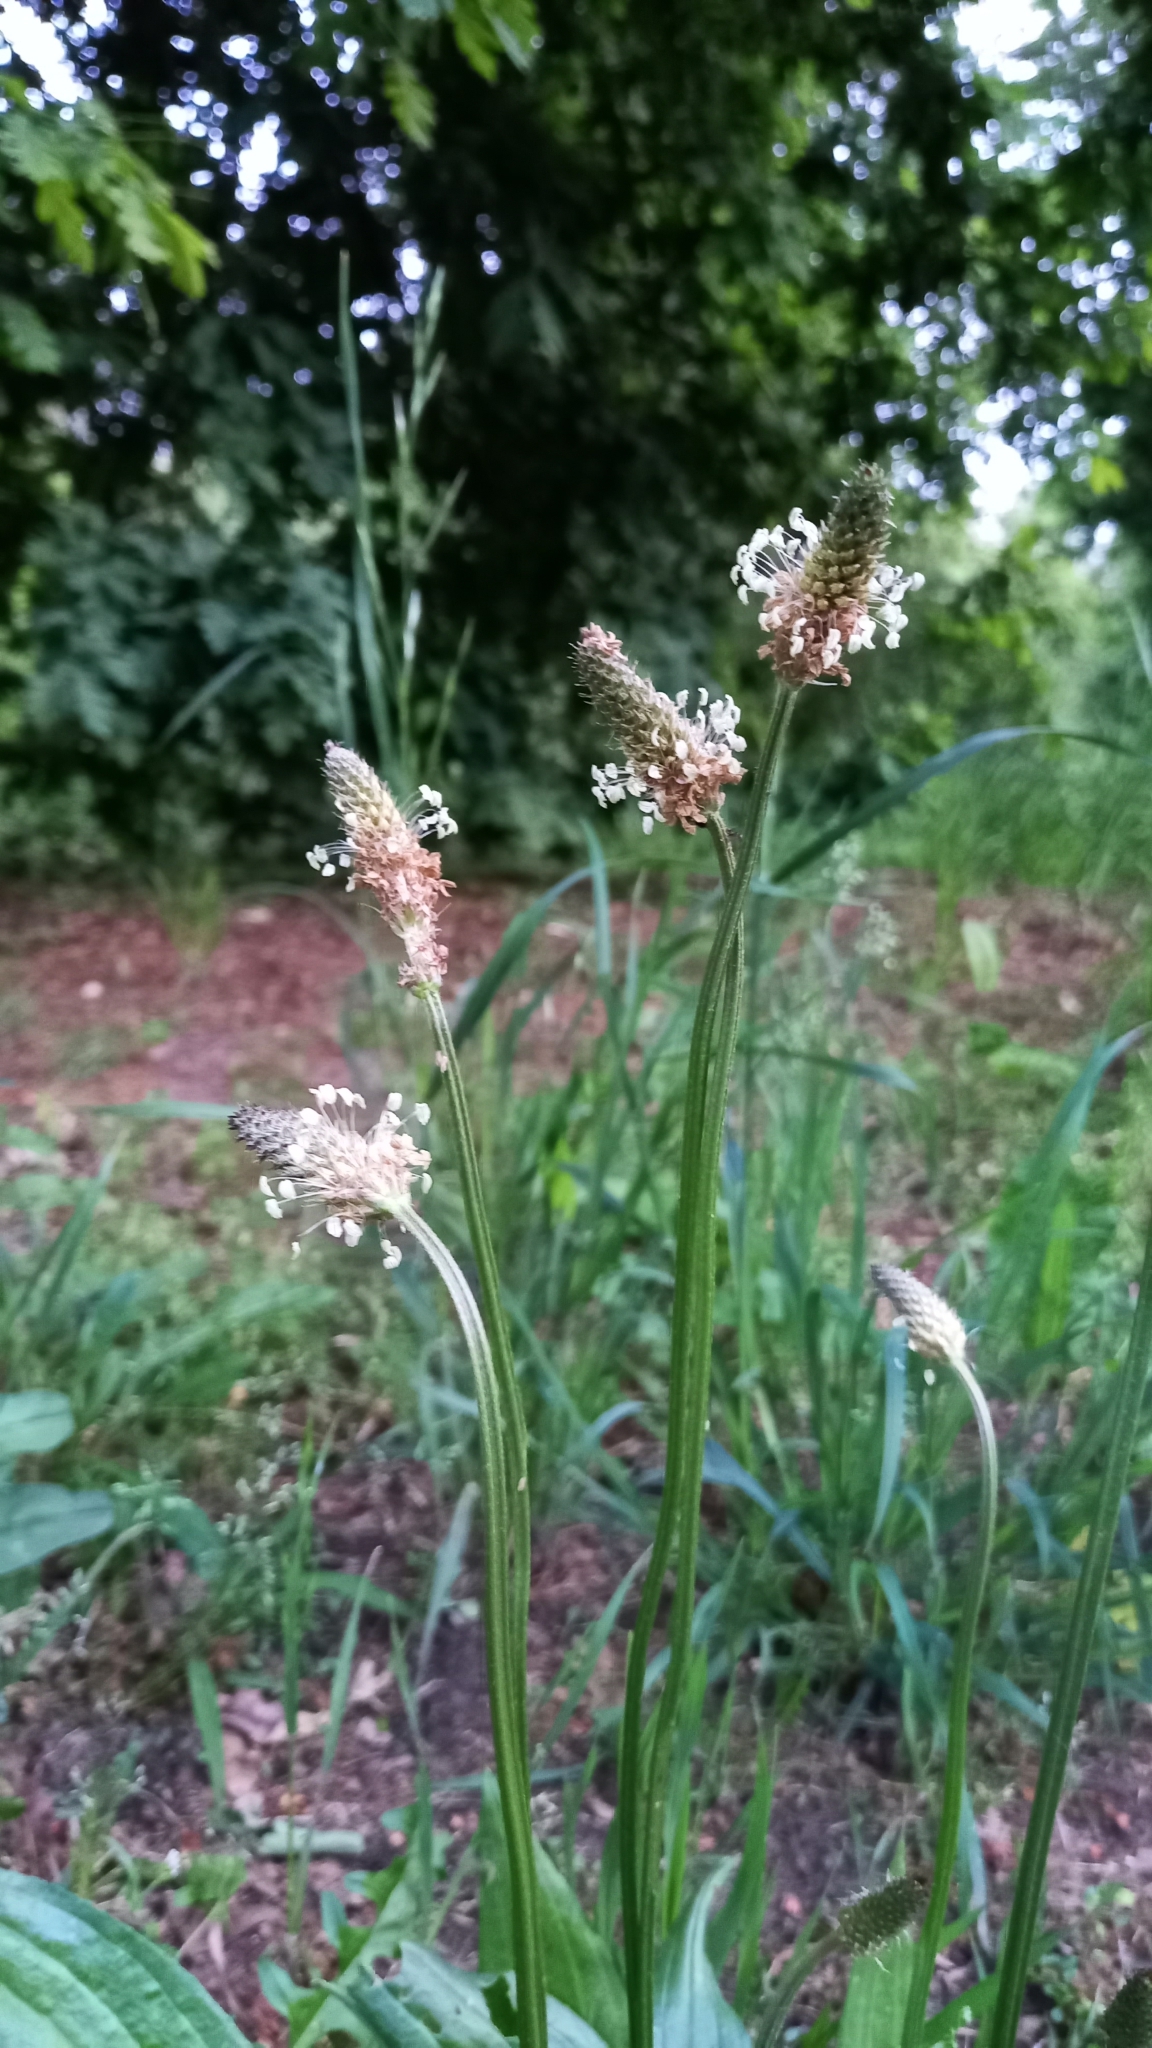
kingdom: Plantae
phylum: Tracheophyta
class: Magnoliopsida
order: Lamiales
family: Plantaginaceae
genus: Plantago
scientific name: Plantago lanceolata
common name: Ribwort plantain
